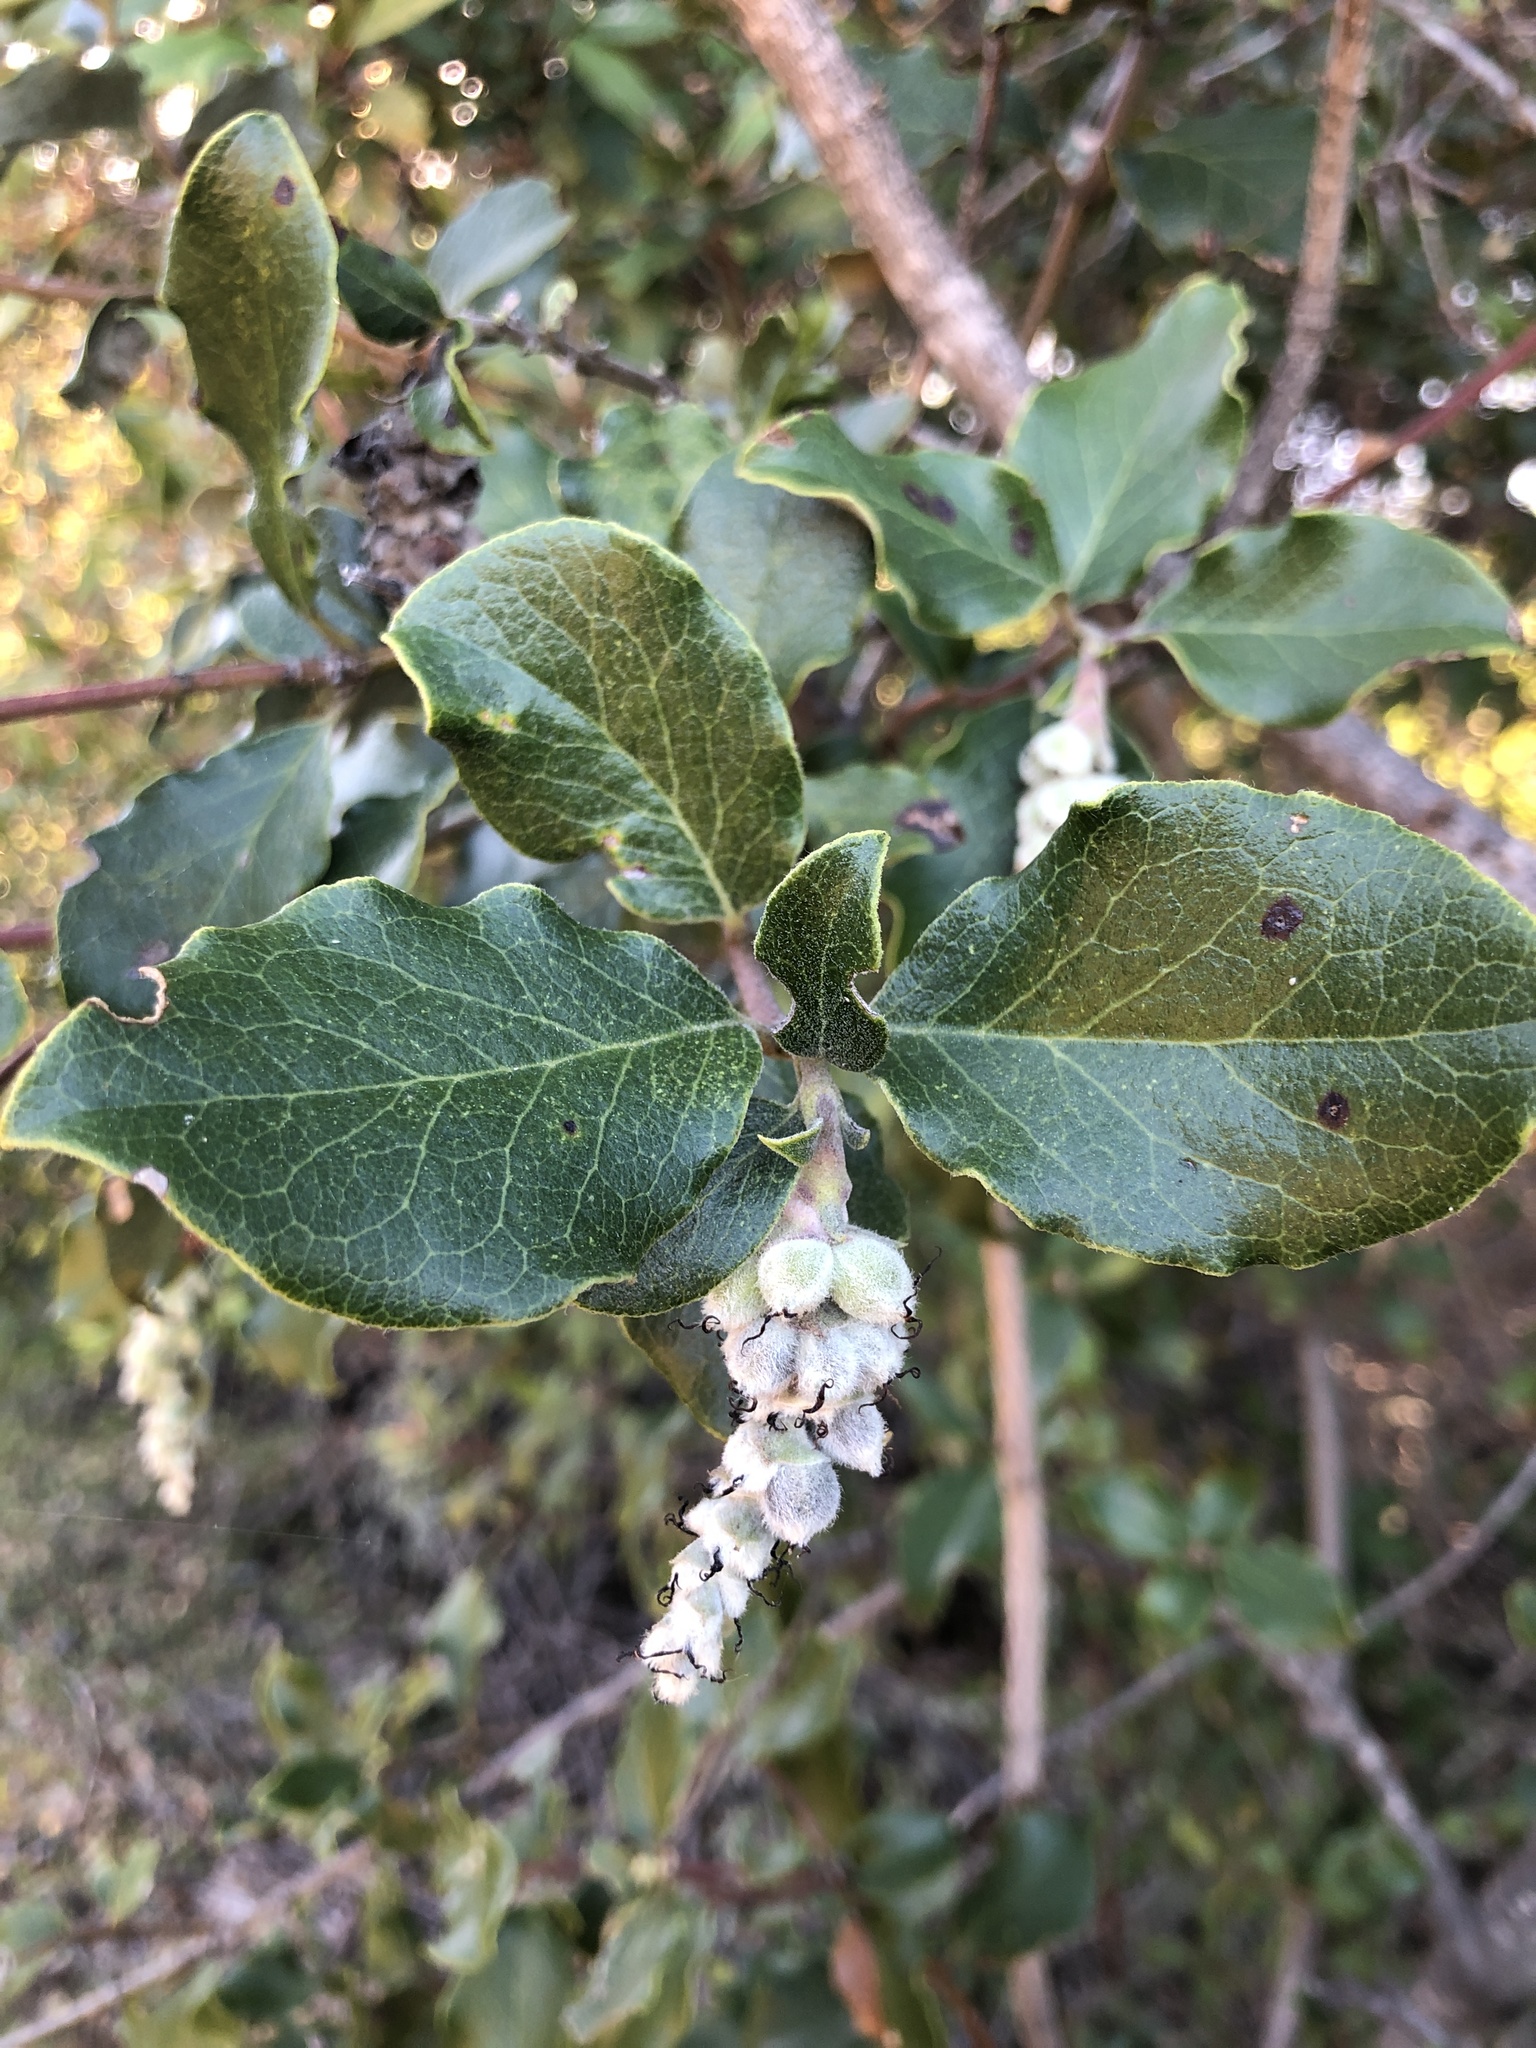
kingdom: Plantae
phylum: Tracheophyta
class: Magnoliopsida
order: Garryales
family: Garryaceae
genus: Garrya
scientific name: Garrya elliptica
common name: Silk-tassel
